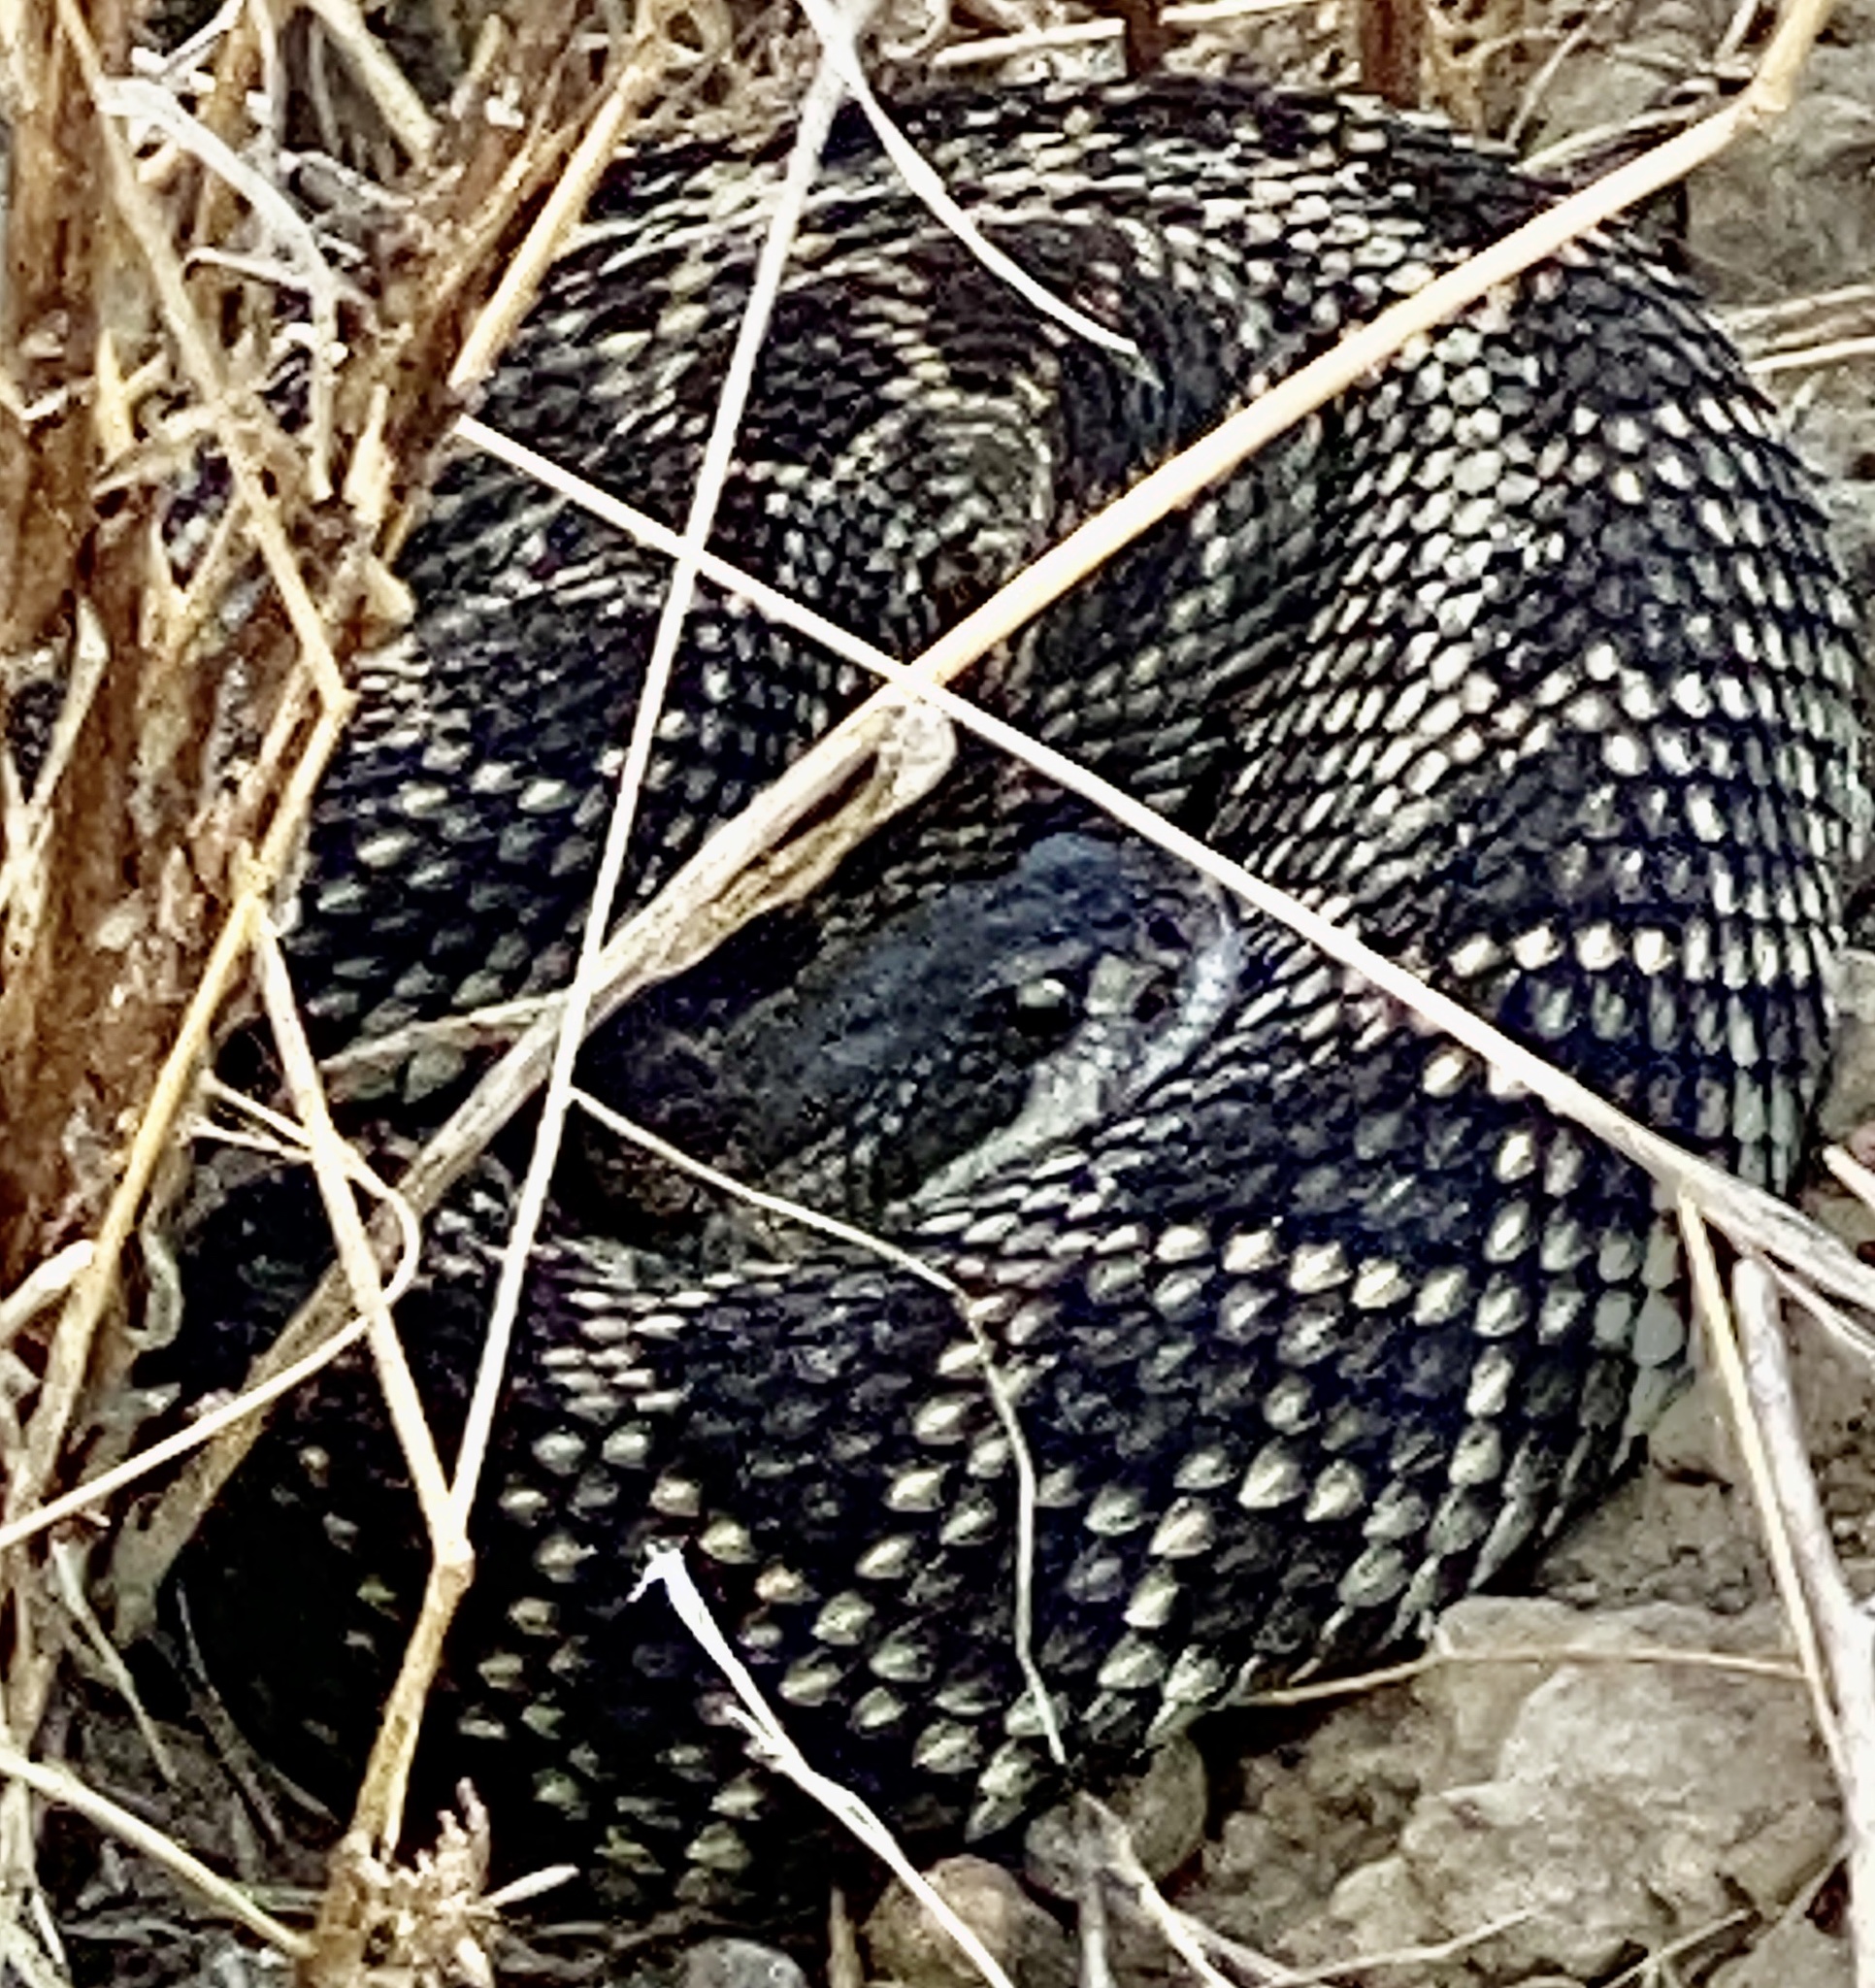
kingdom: Animalia
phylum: Chordata
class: Squamata
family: Viperidae
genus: Crotalus
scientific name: Crotalus oreganus
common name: Abyssus
